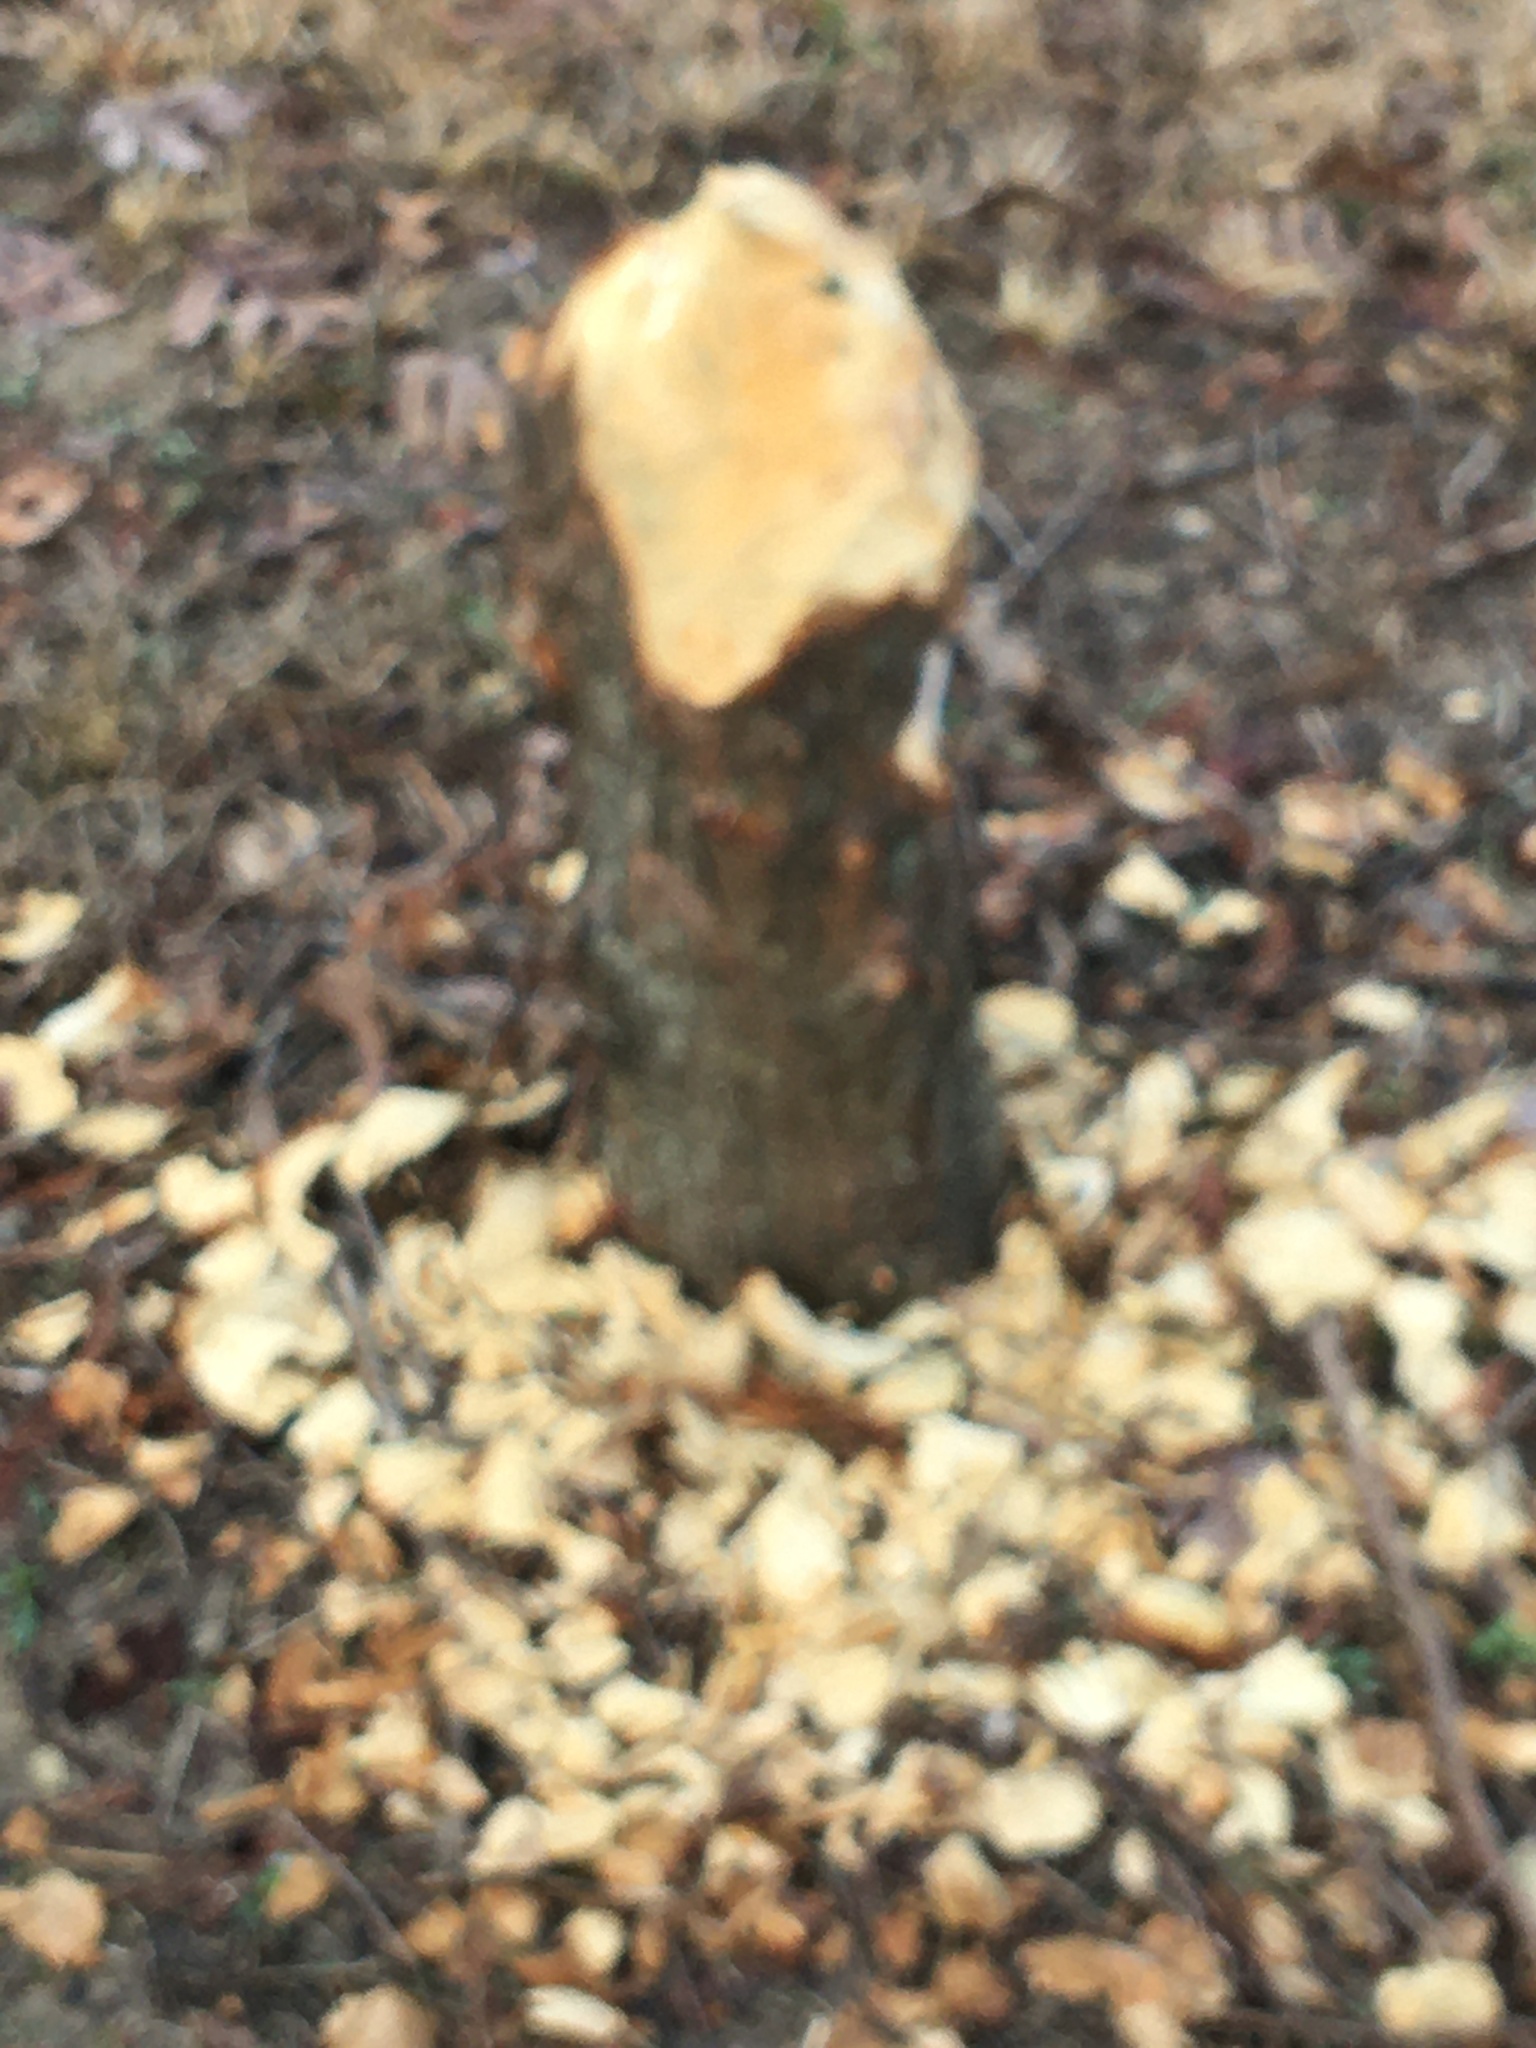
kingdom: Animalia
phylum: Chordata
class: Mammalia
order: Rodentia
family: Castoridae
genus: Castor
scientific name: Castor canadensis
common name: American beaver
